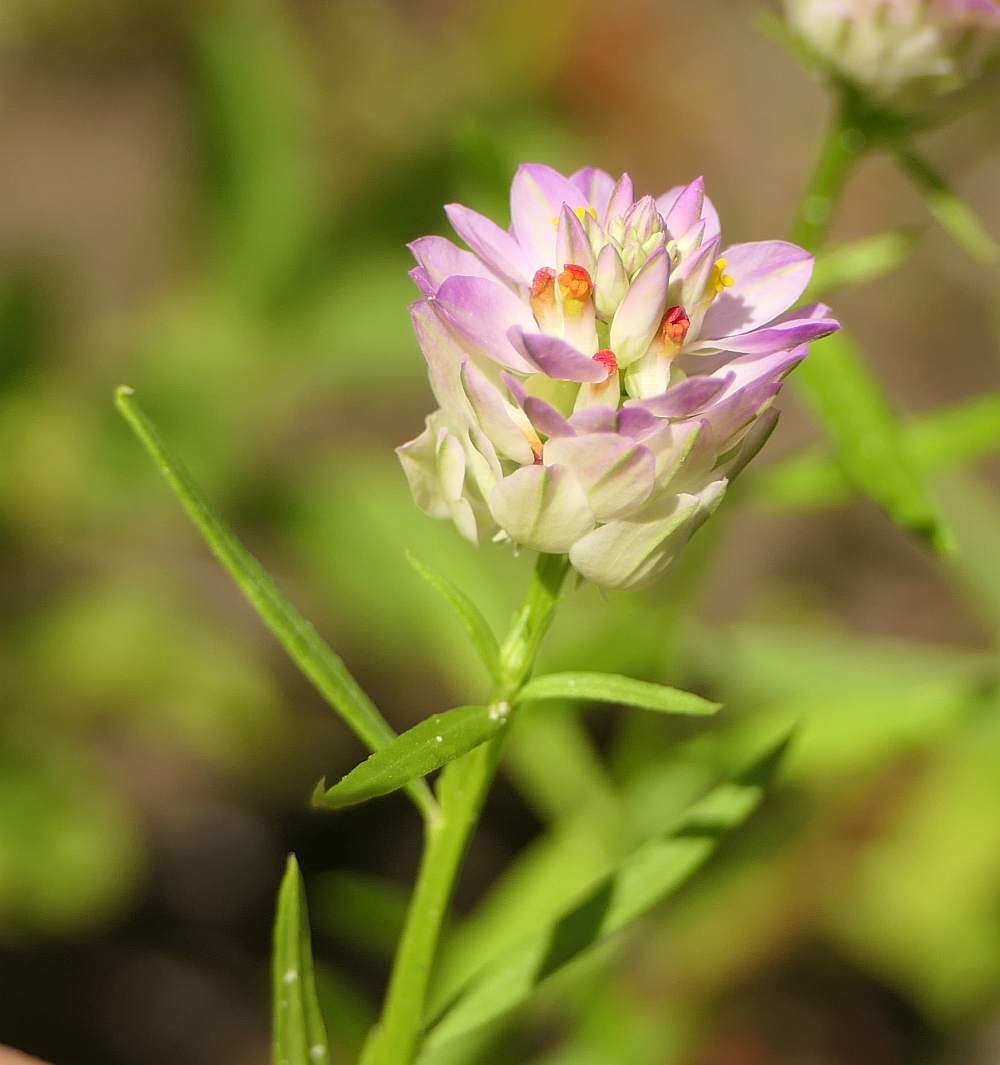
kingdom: Plantae
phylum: Tracheophyta
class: Magnoliopsida
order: Fabales
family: Polygalaceae
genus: Polygala
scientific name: Polygala sanguinea
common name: Blood milkwort
